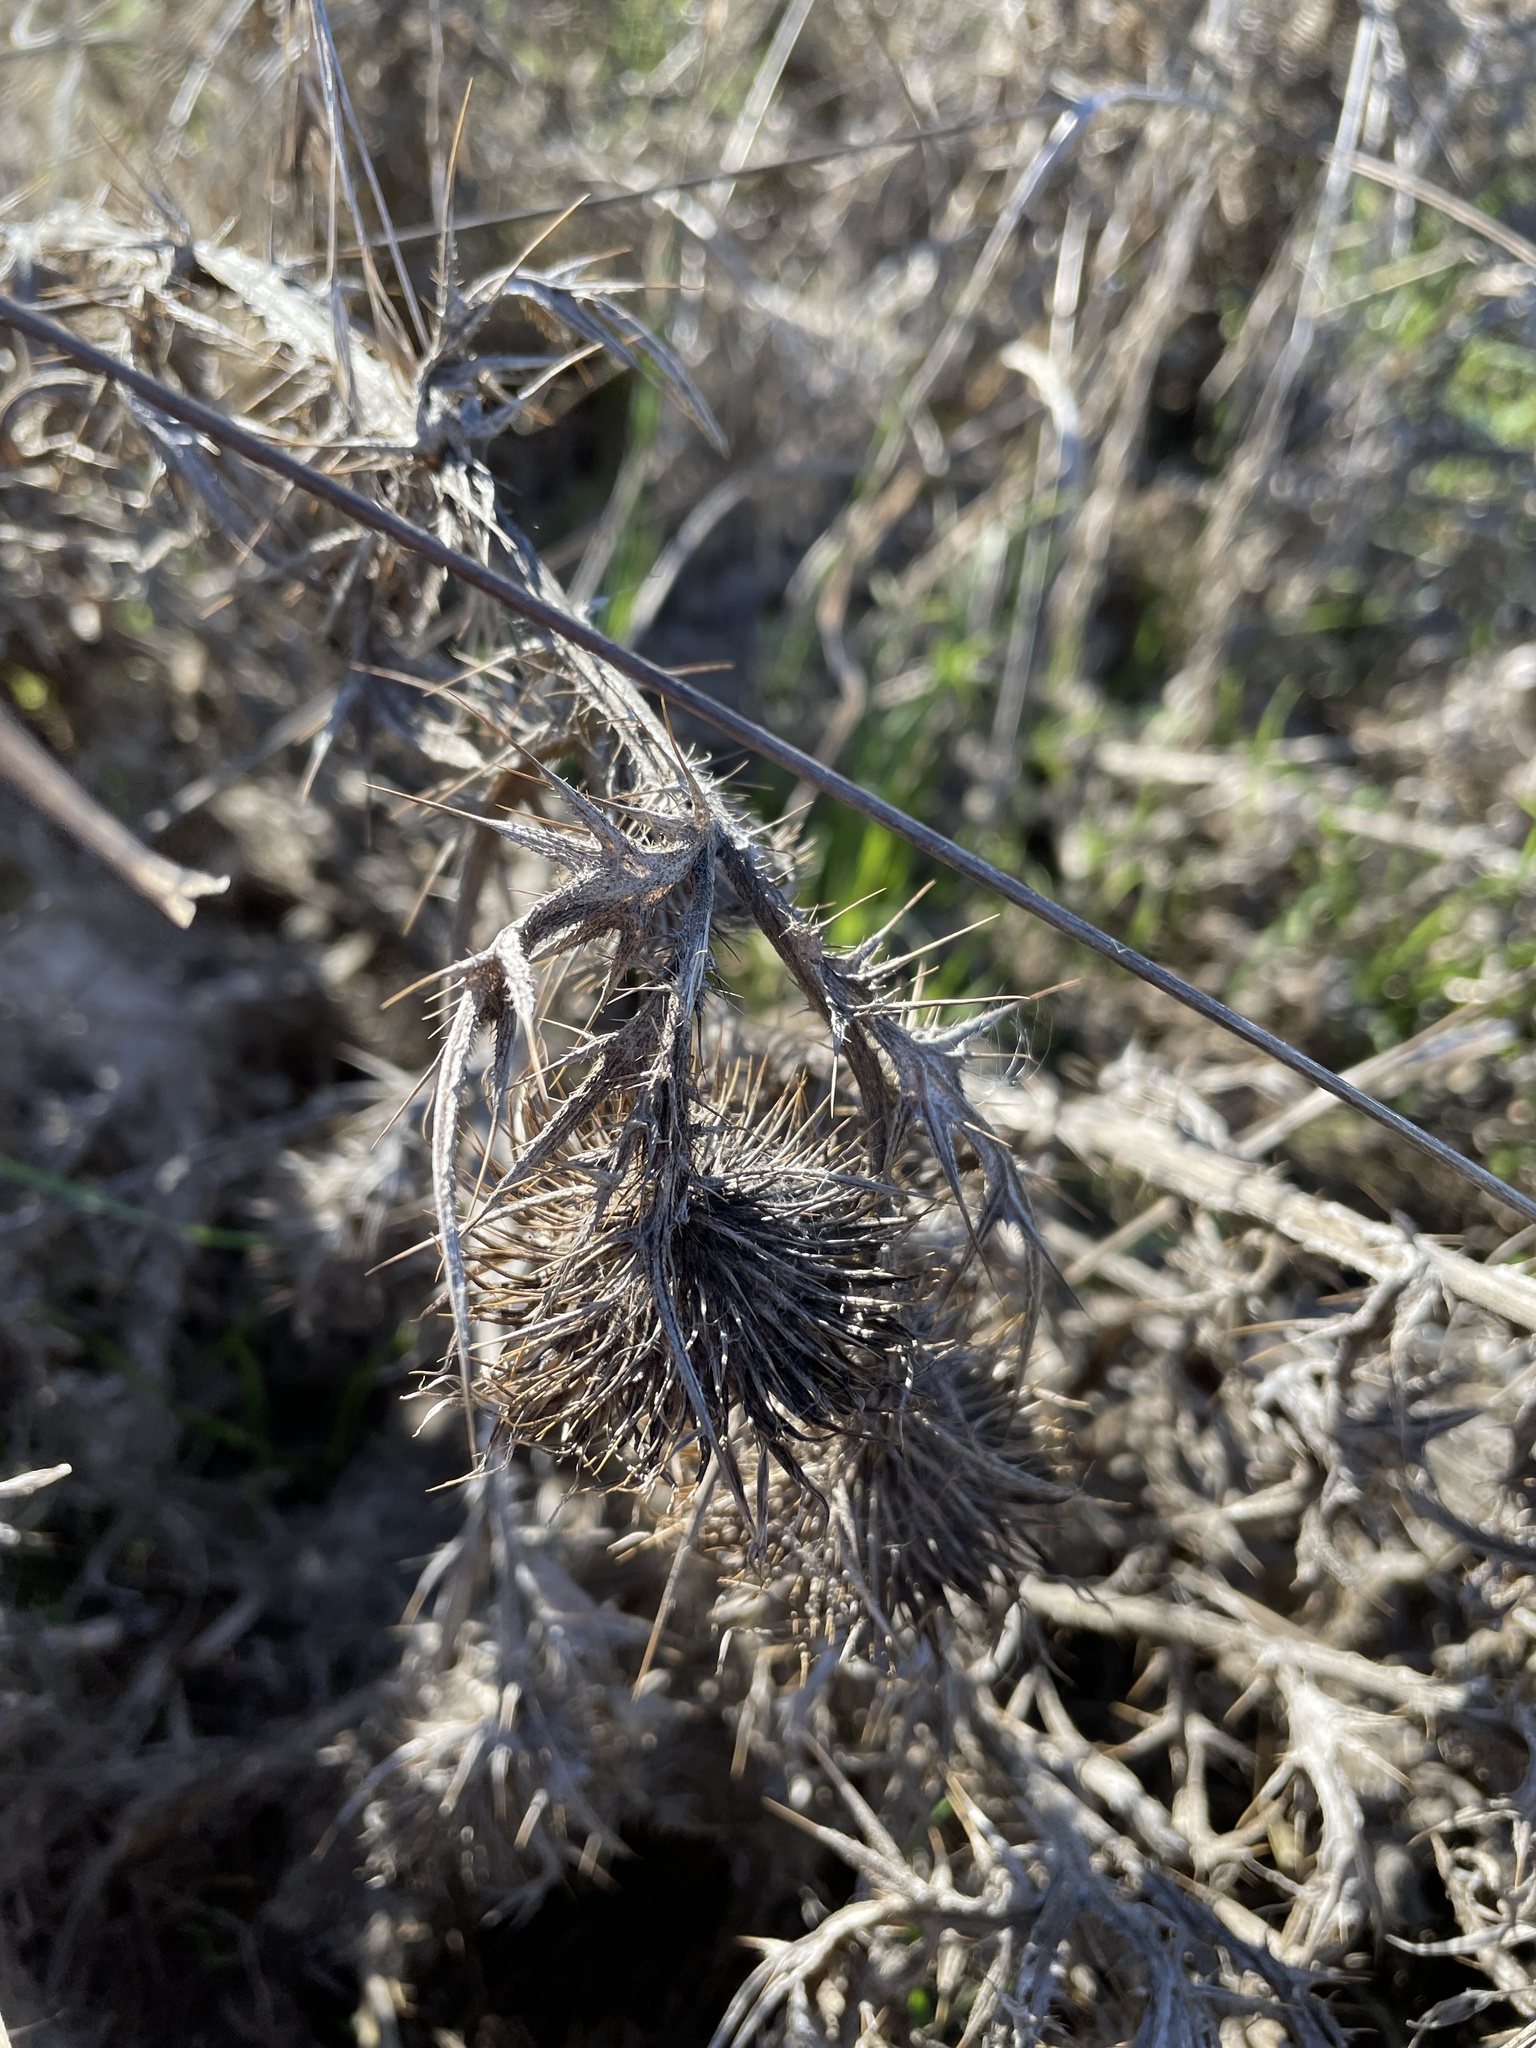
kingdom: Plantae
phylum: Tracheophyta
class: Magnoliopsida
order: Asterales
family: Asteraceae
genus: Cirsium
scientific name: Cirsium vulgare
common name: Bull thistle
